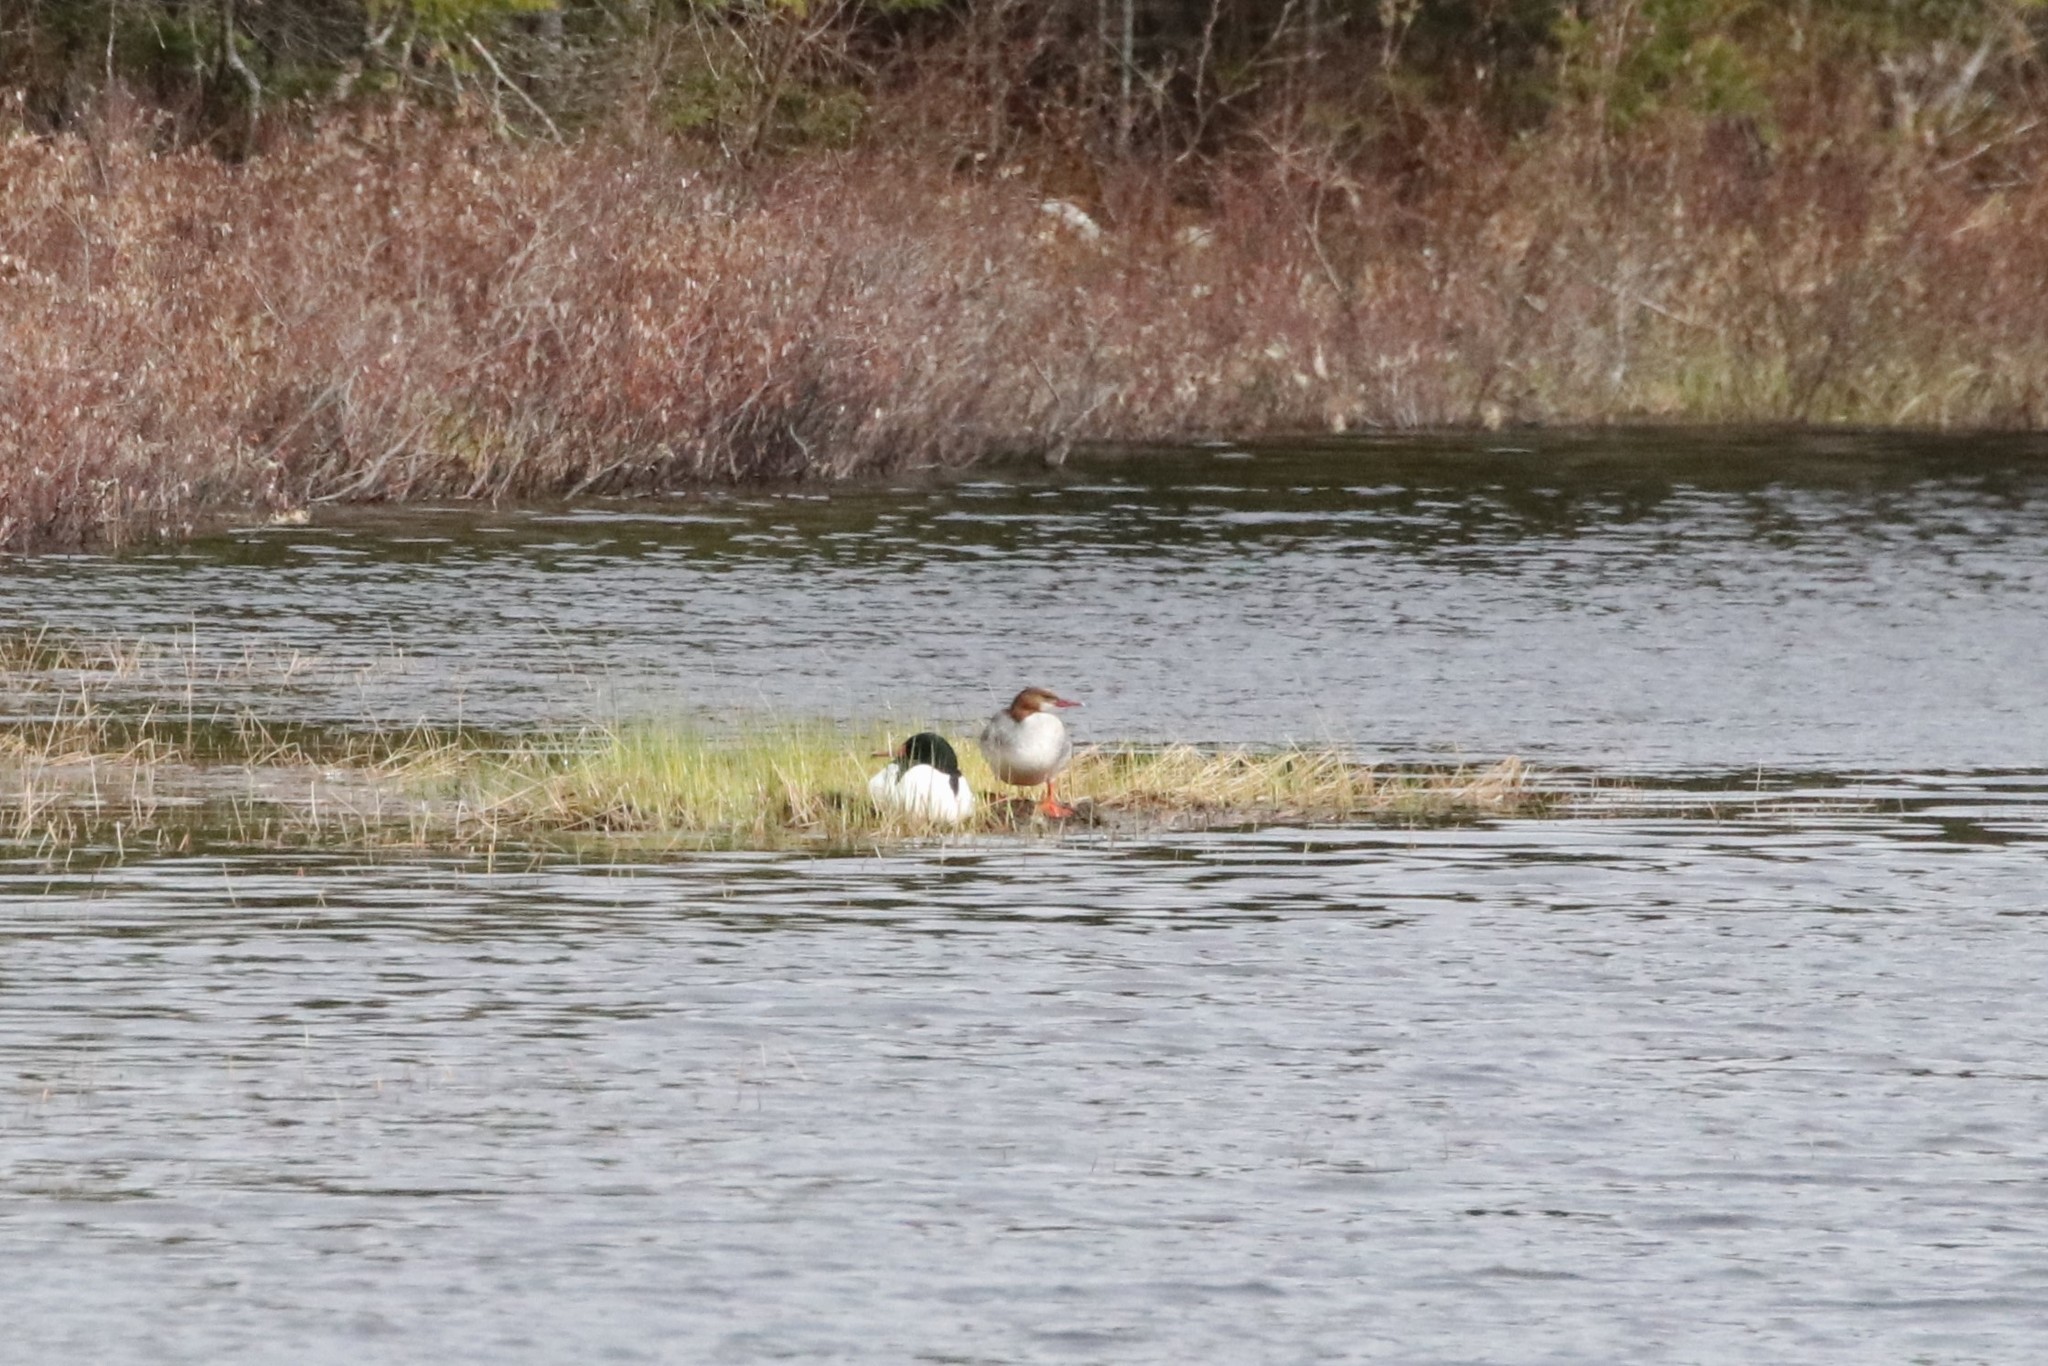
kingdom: Animalia
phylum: Chordata
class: Aves
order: Anseriformes
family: Anatidae
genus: Mergus
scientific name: Mergus merganser
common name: Common merganser
